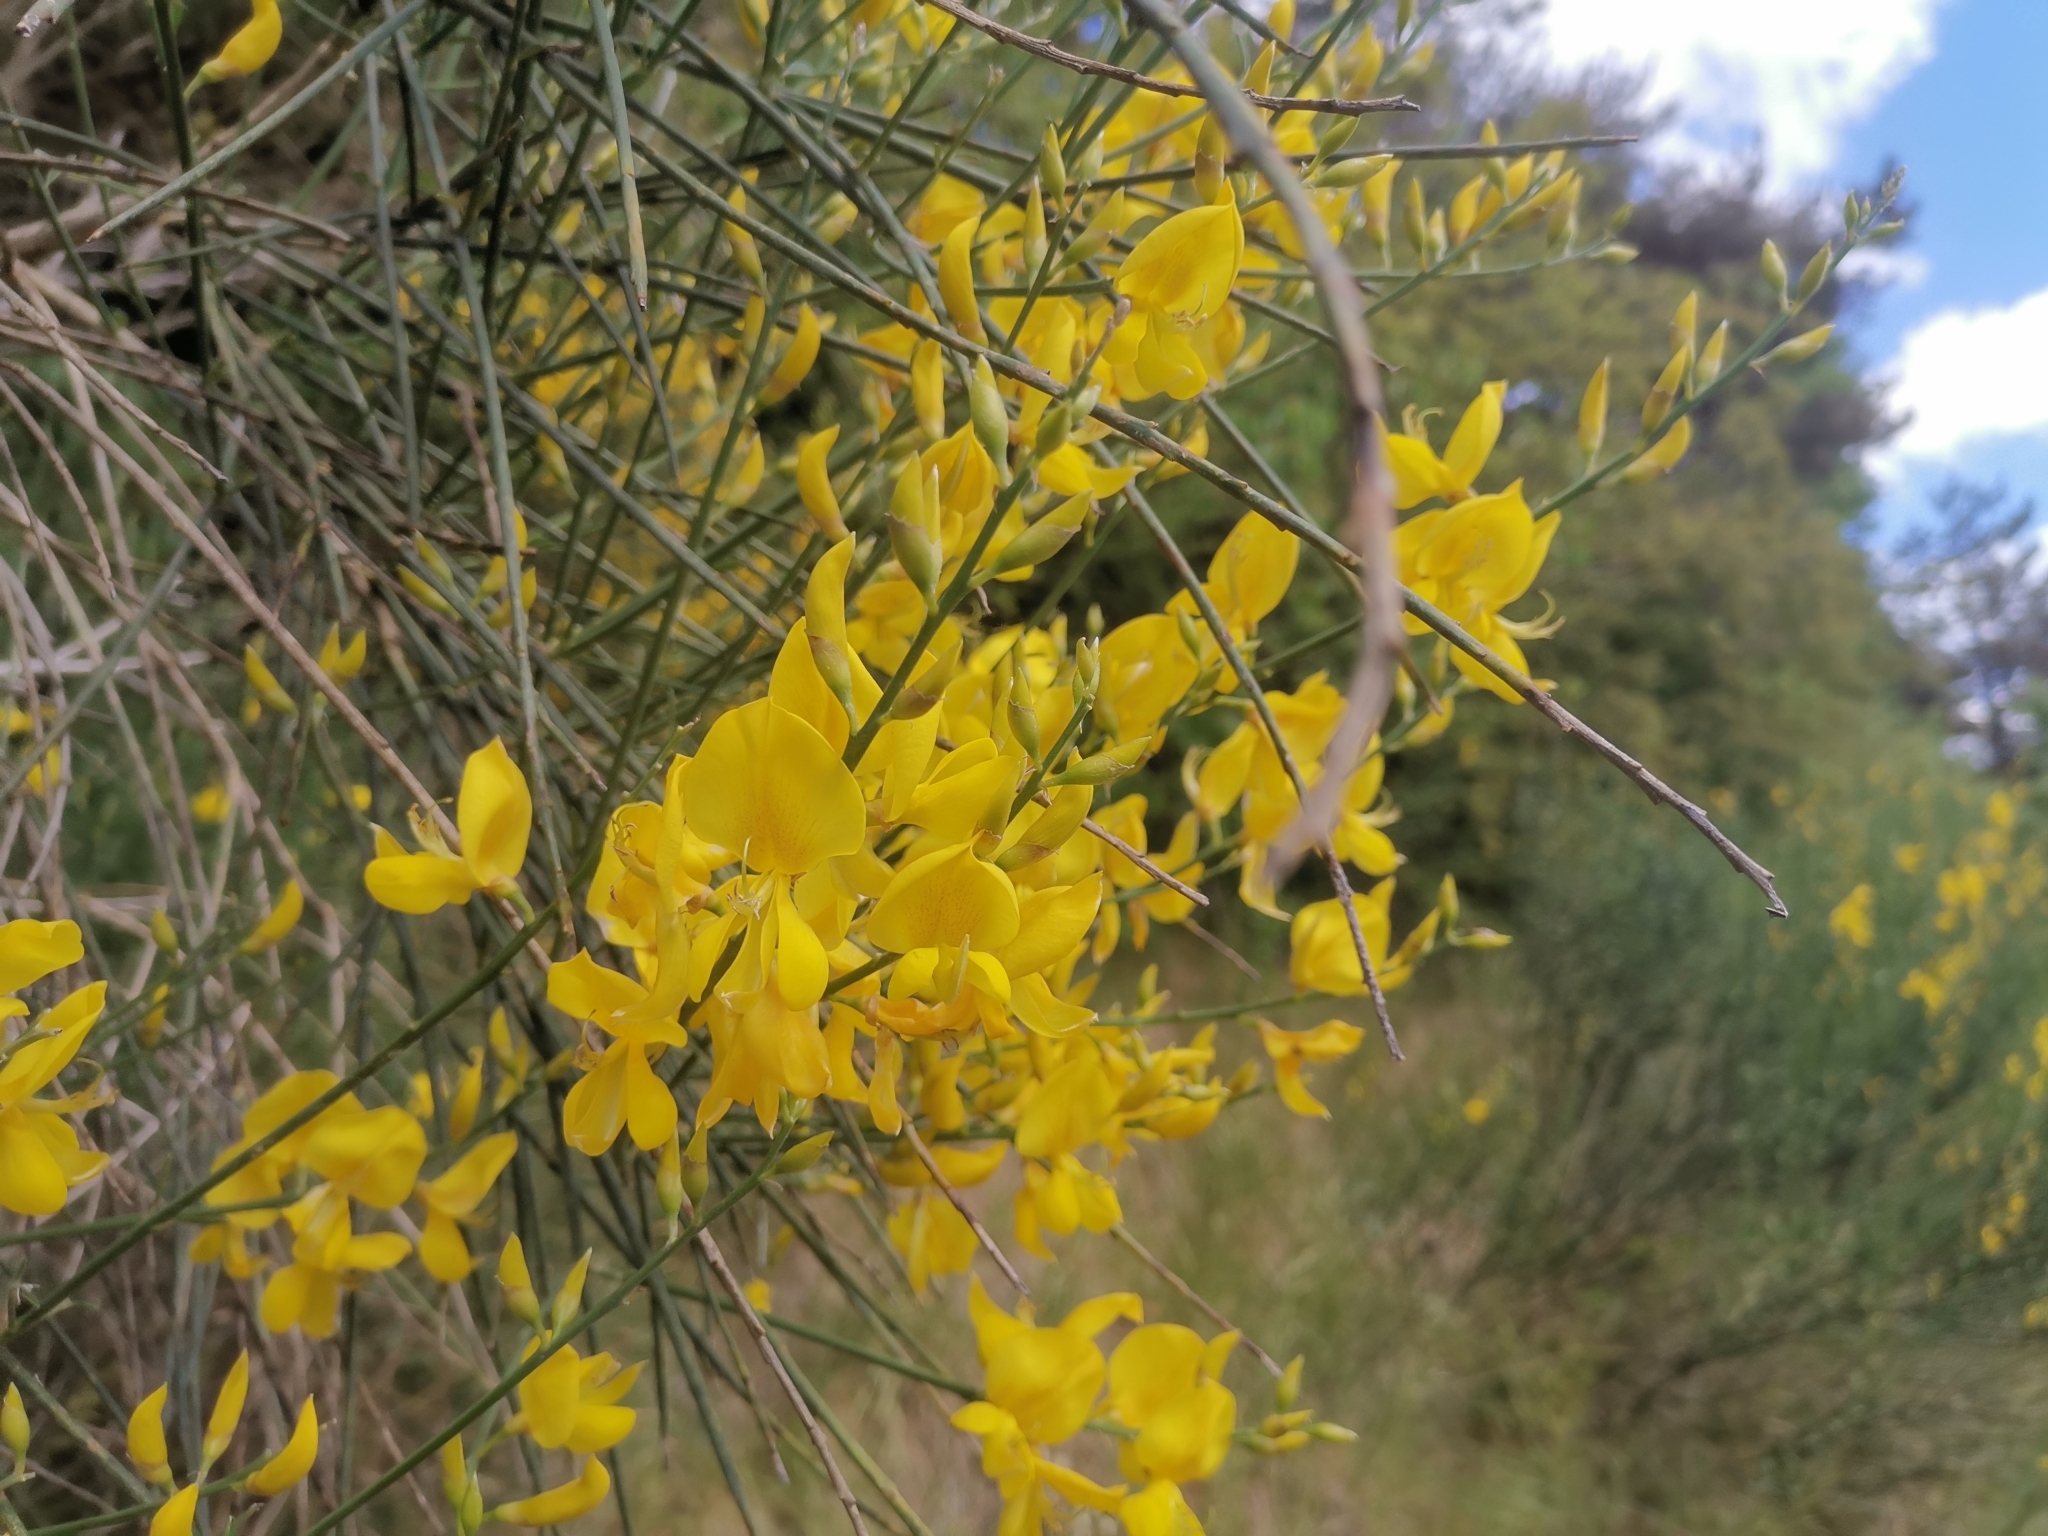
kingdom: Plantae
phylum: Tracheophyta
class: Magnoliopsida
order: Fabales
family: Fabaceae
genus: Spartium
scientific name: Spartium junceum
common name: Spanish broom
